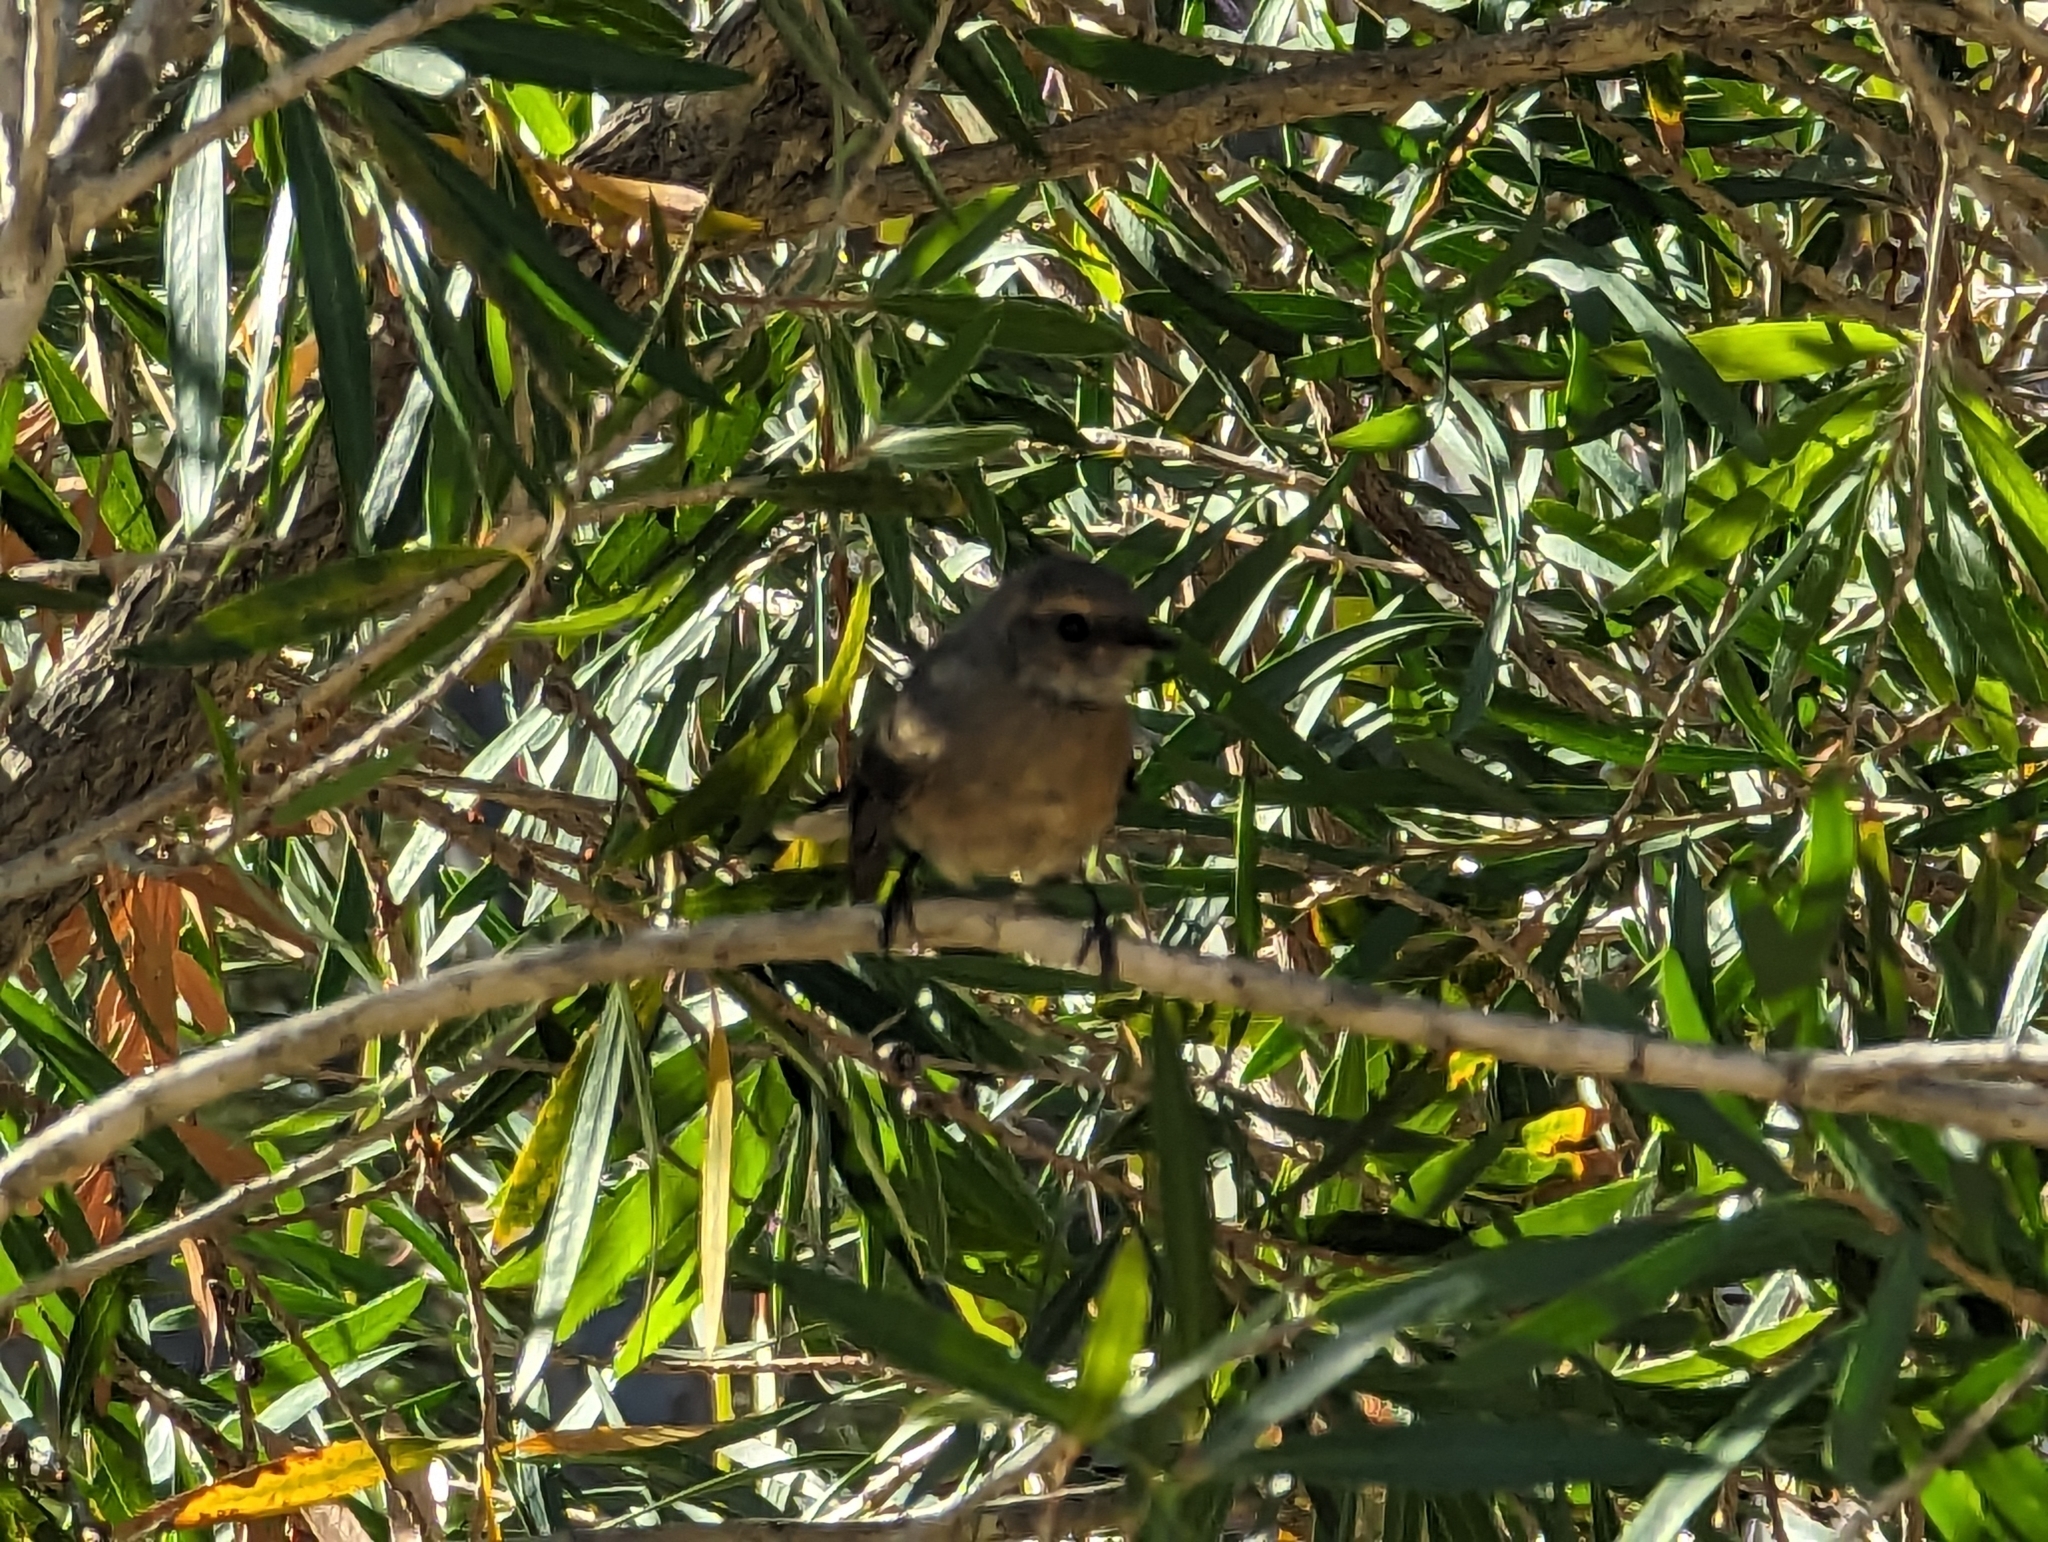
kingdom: Animalia
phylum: Chordata
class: Aves
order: Passeriformes
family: Rhipiduridae
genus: Rhipidura
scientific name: Rhipidura albiscapa
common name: Grey fantail
